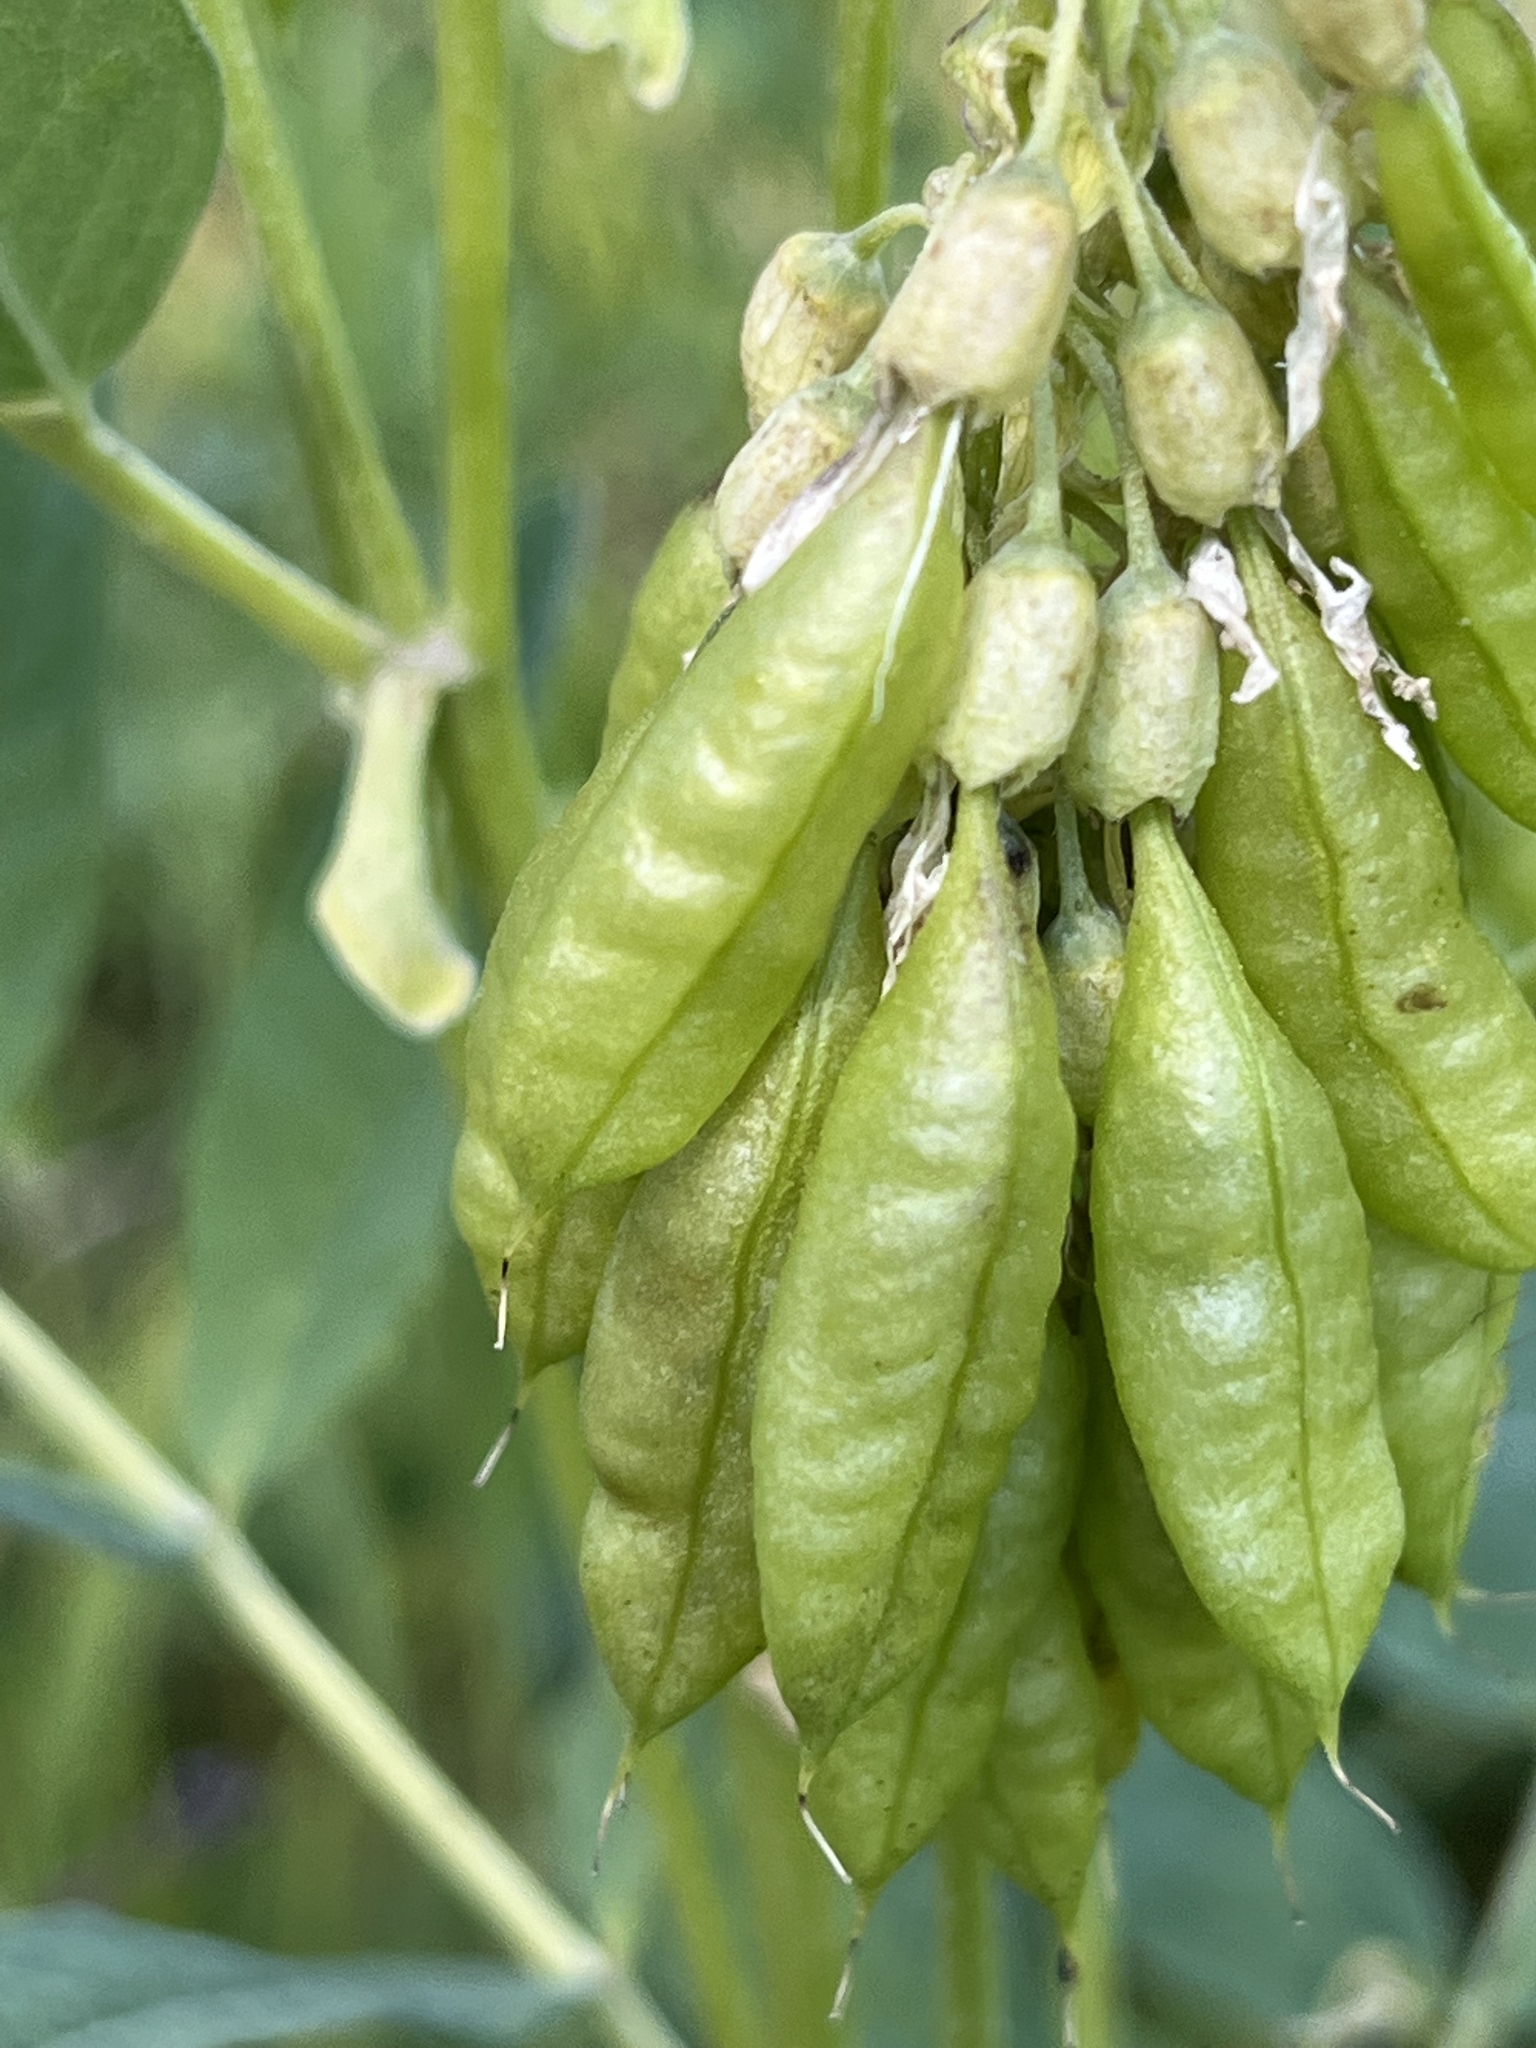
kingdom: Plantae
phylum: Tracheophyta
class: Magnoliopsida
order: Fabales
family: Fabaceae
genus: Astragalus
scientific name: Astragalus americanus
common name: American milk-vetch
